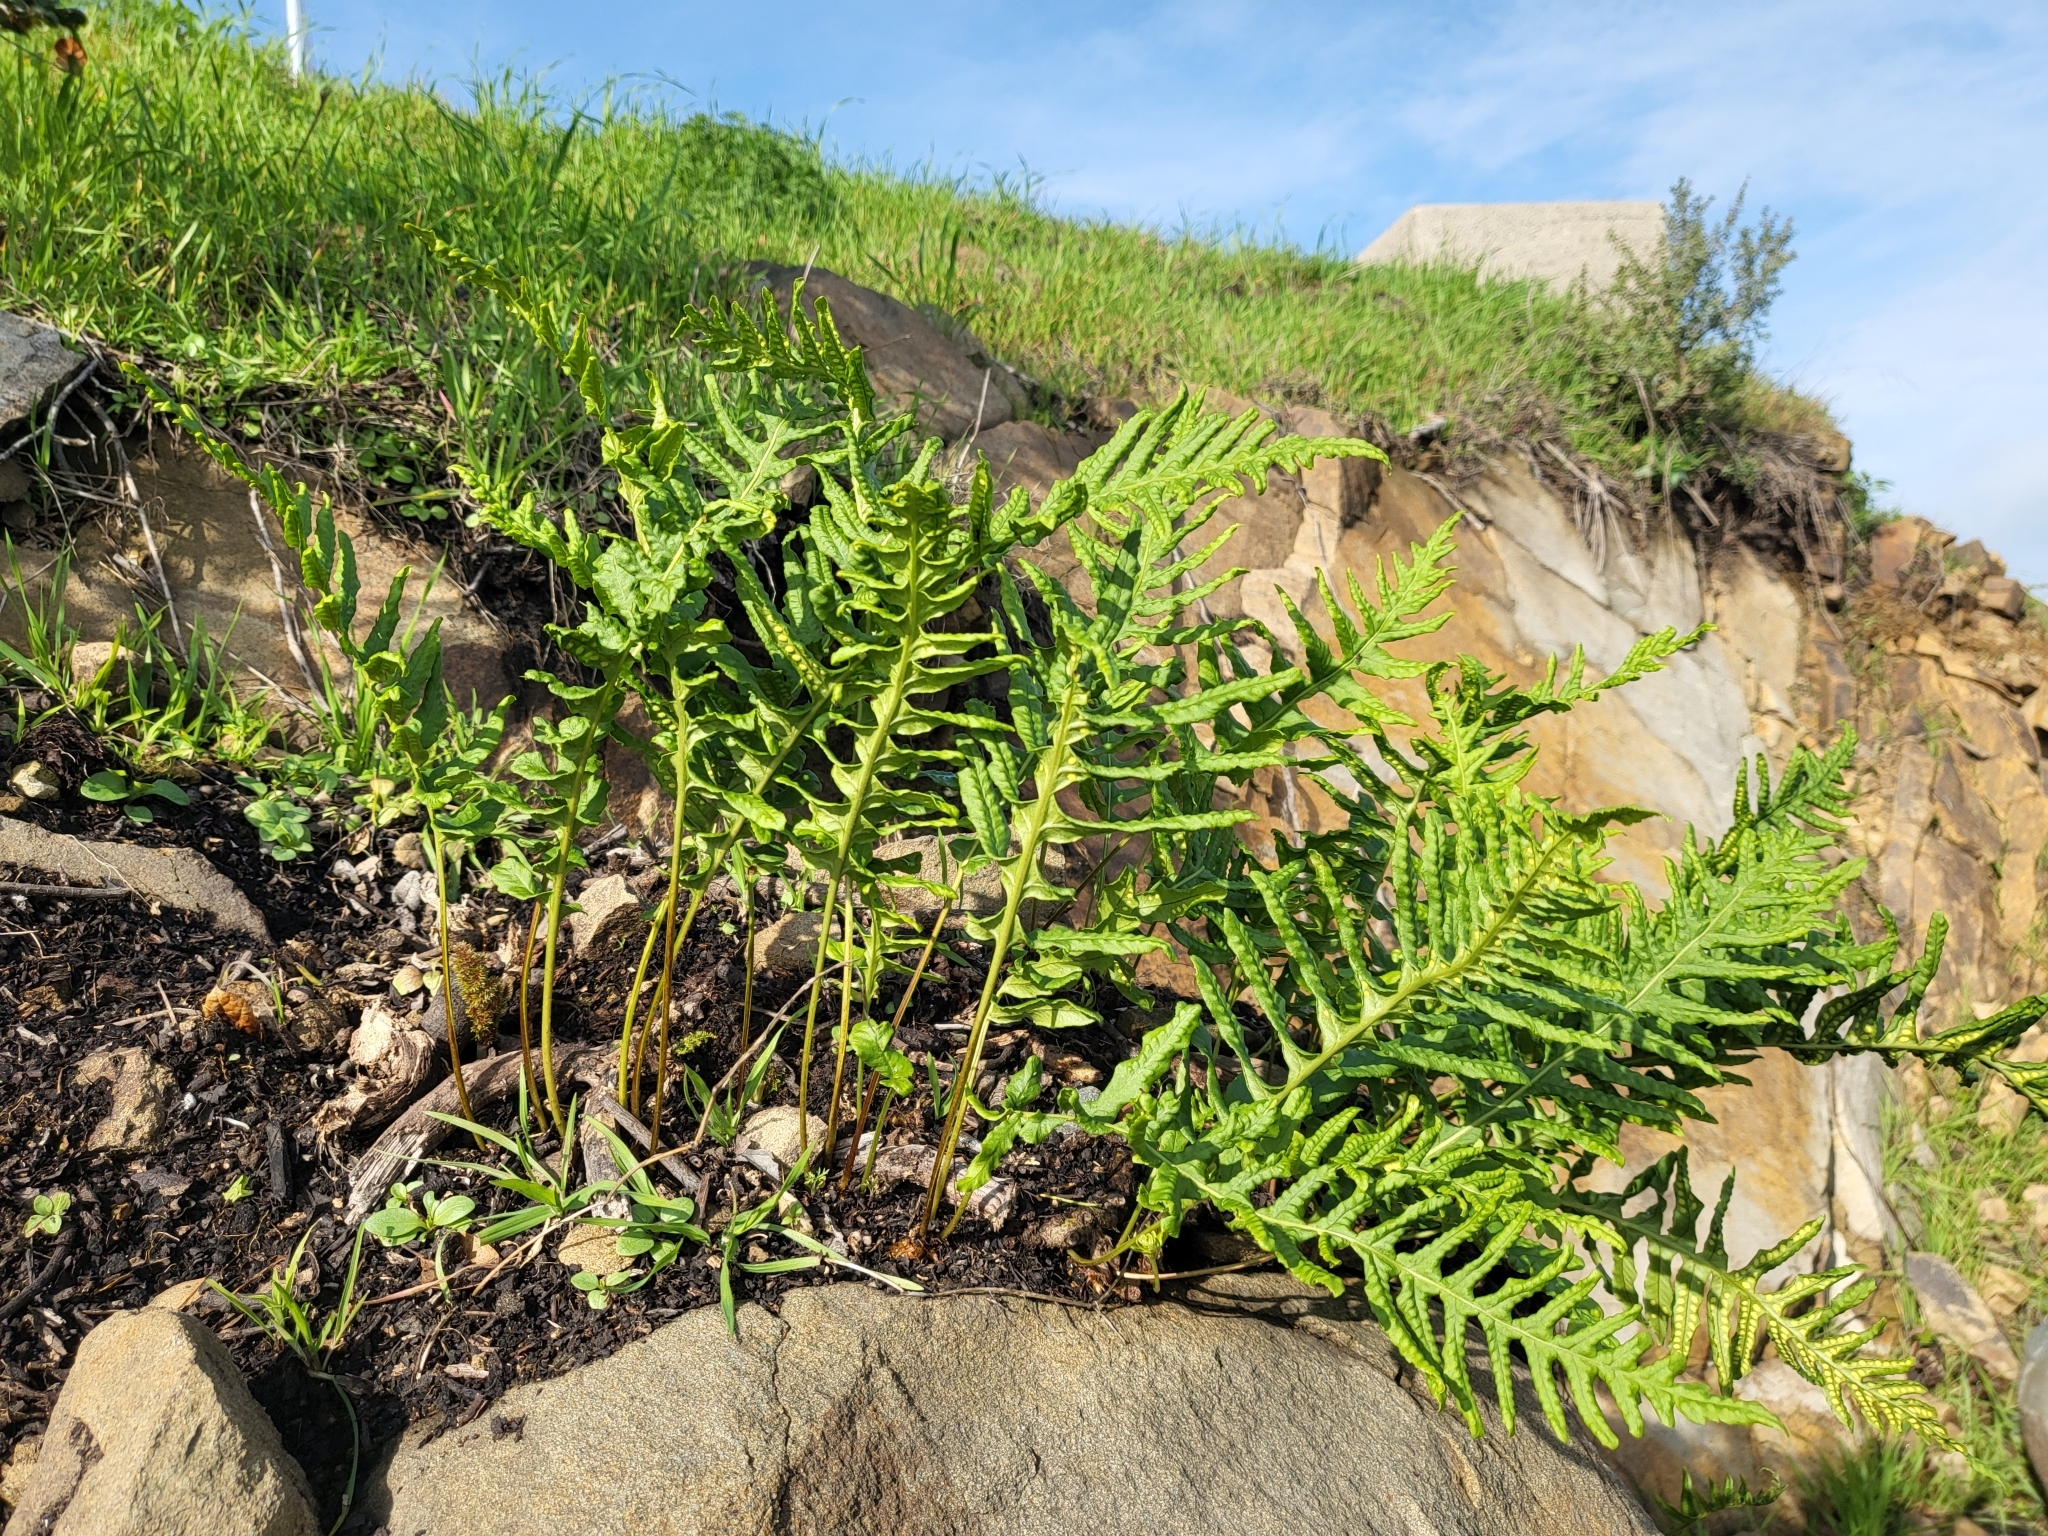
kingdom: Plantae
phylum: Tracheophyta
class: Polypodiopsida
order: Polypodiales
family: Polypodiaceae
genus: Polypodium
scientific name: Polypodium californicum
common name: California polypody
